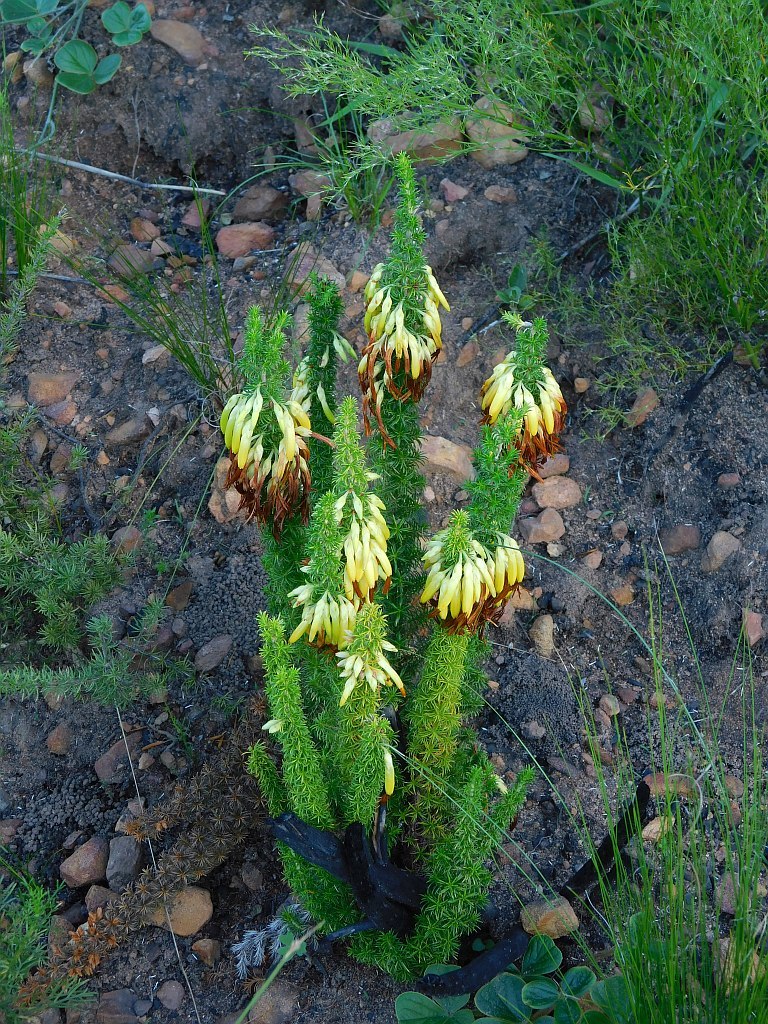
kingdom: Plantae
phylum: Tracheophyta
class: Magnoliopsida
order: Ericales
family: Ericaceae
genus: Erica
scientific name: Erica coccinea
